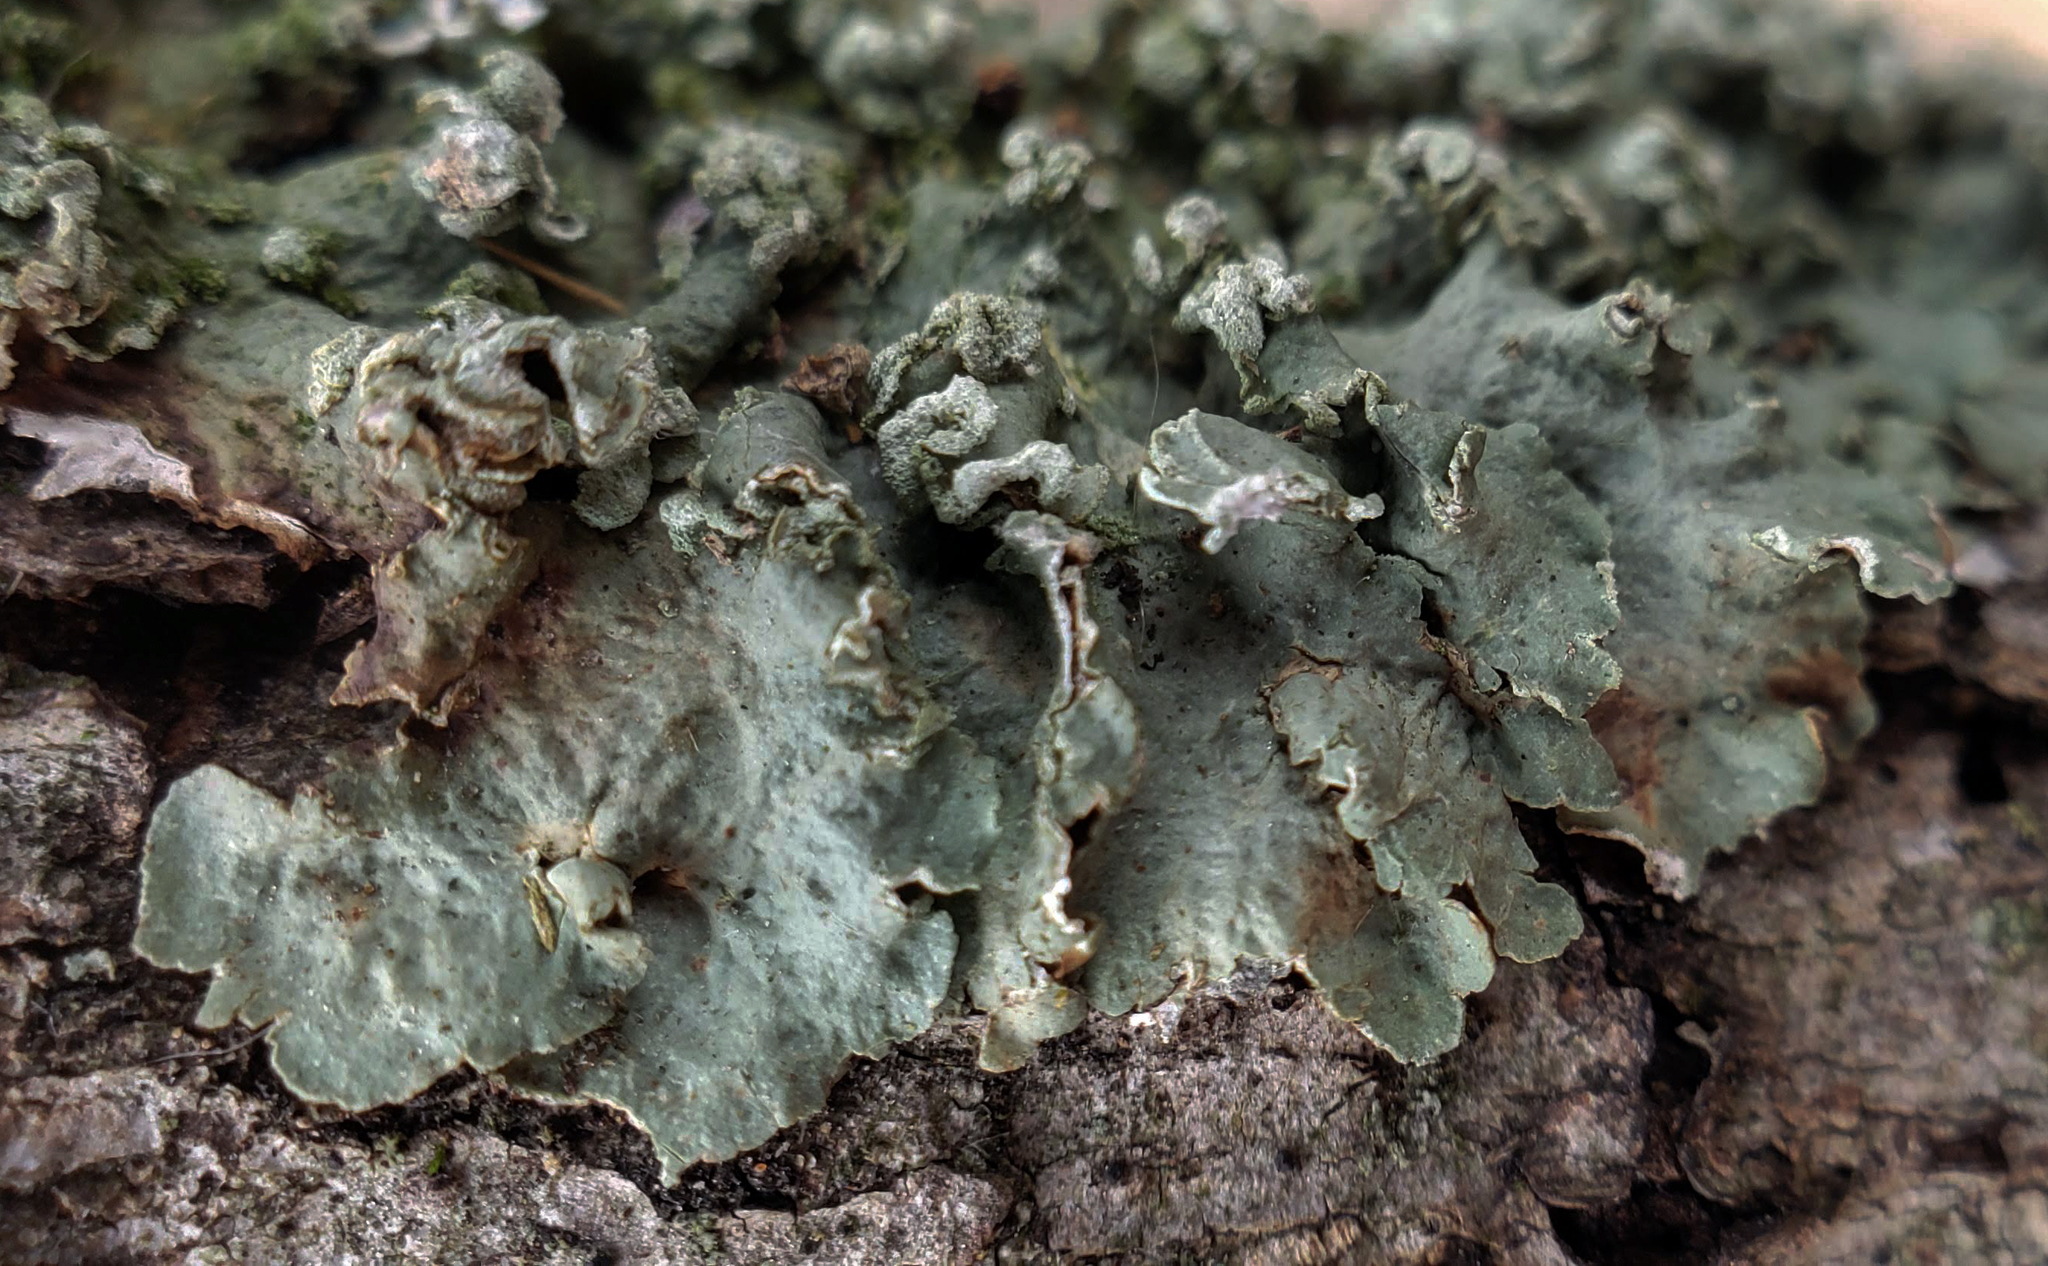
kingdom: Fungi
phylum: Ascomycota
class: Lecanoromycetes
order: Lecanorales
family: Parmeliaceae
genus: Flavopunctelia
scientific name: Flavopunctelia soredica
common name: Powder-edged speckled greenshield
